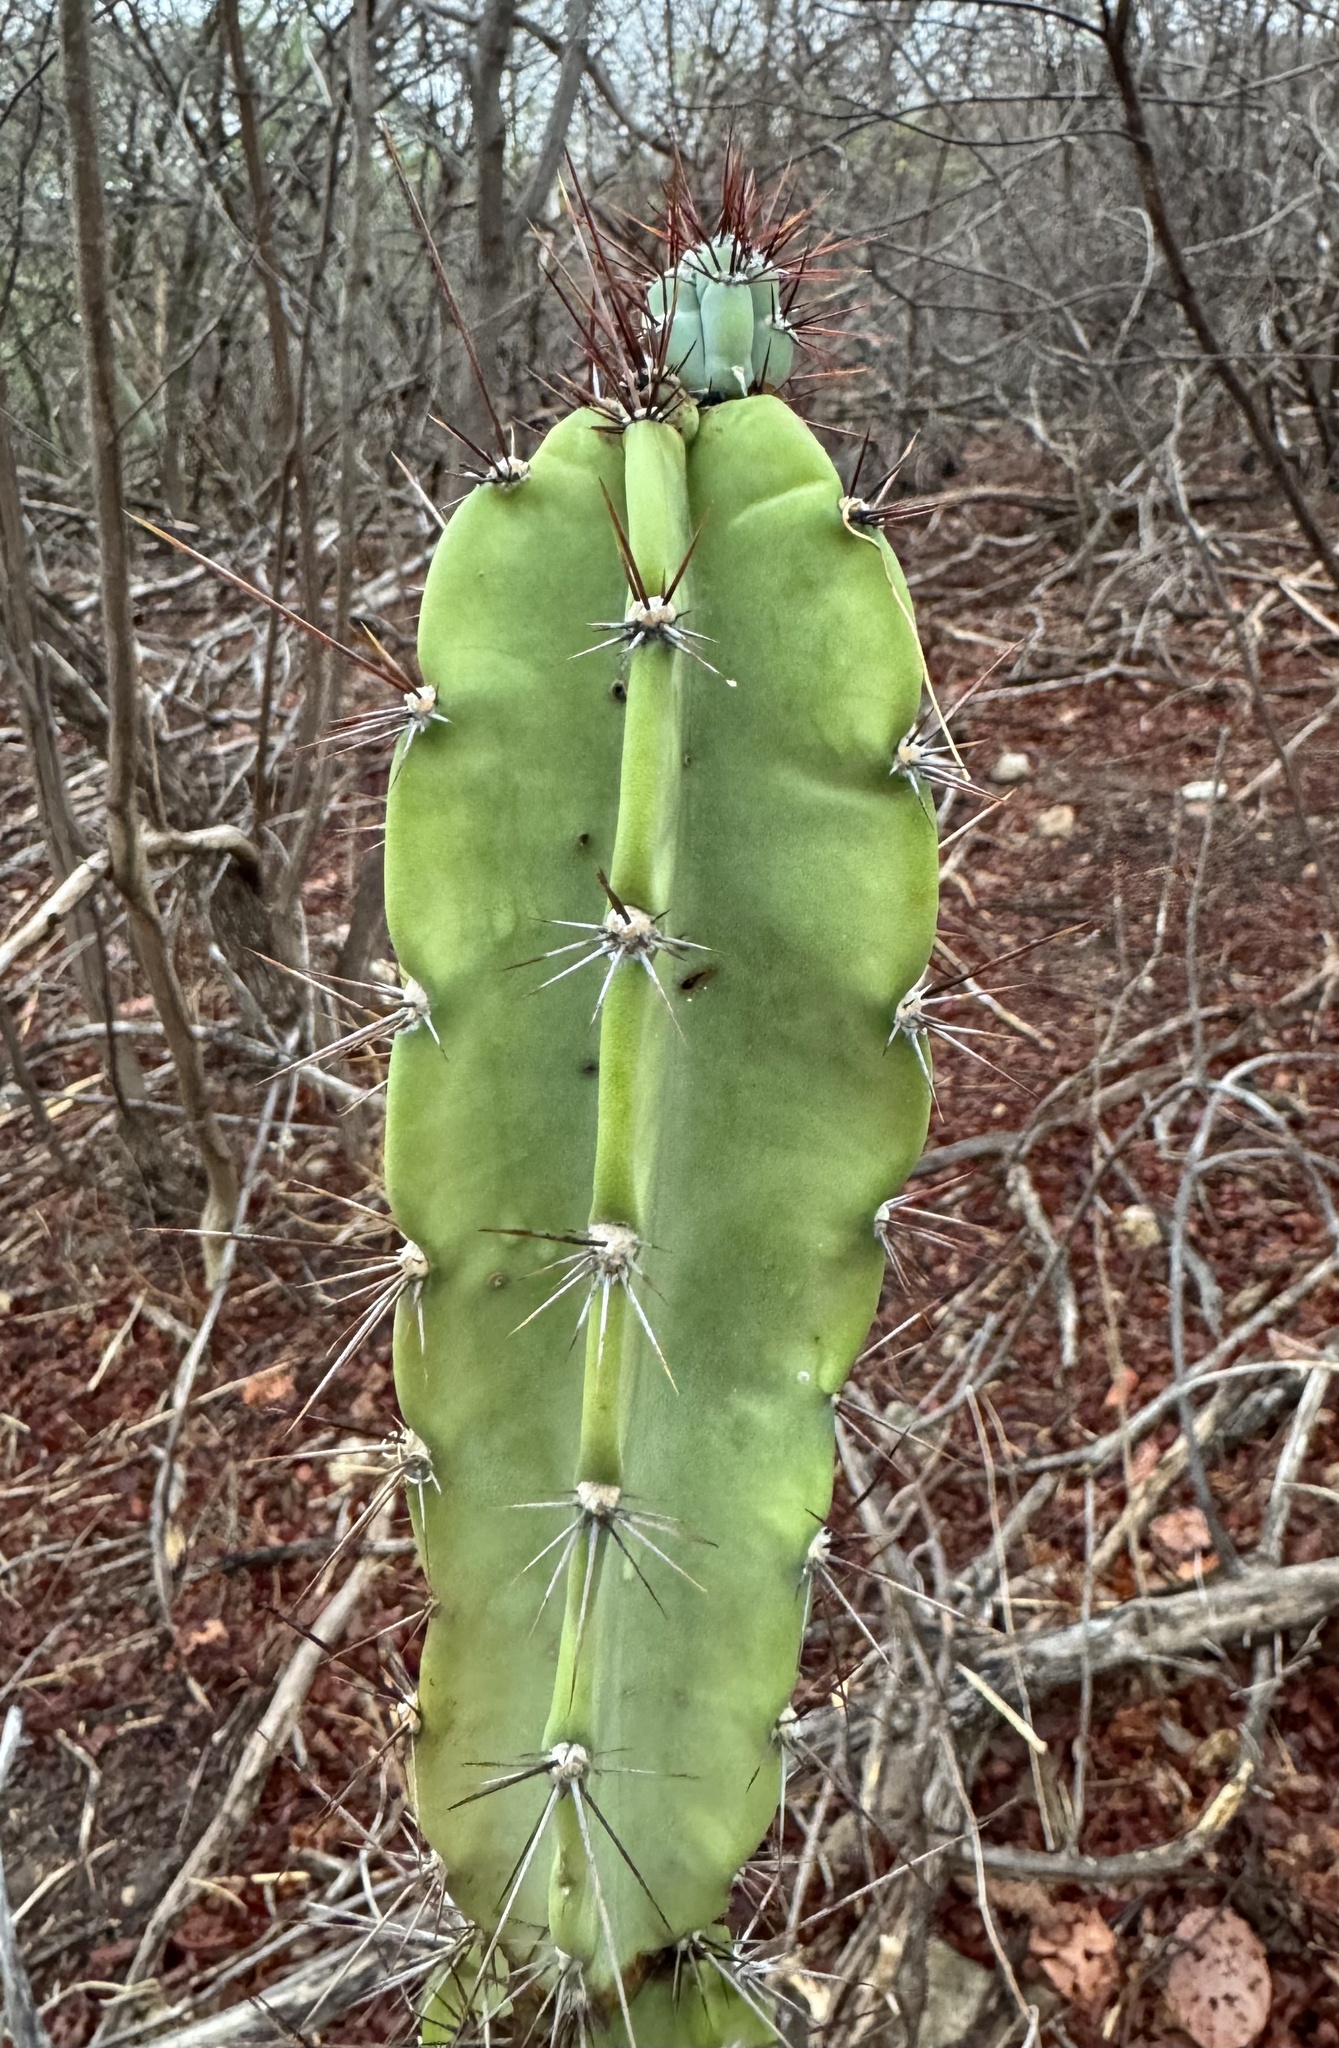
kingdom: Plantae
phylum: Tracheophyta
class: Magnoliopsida
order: Caryophyllales
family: Cactaceae
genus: Cereus
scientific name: Cereus jamacaru
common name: Queen-of-the-night
